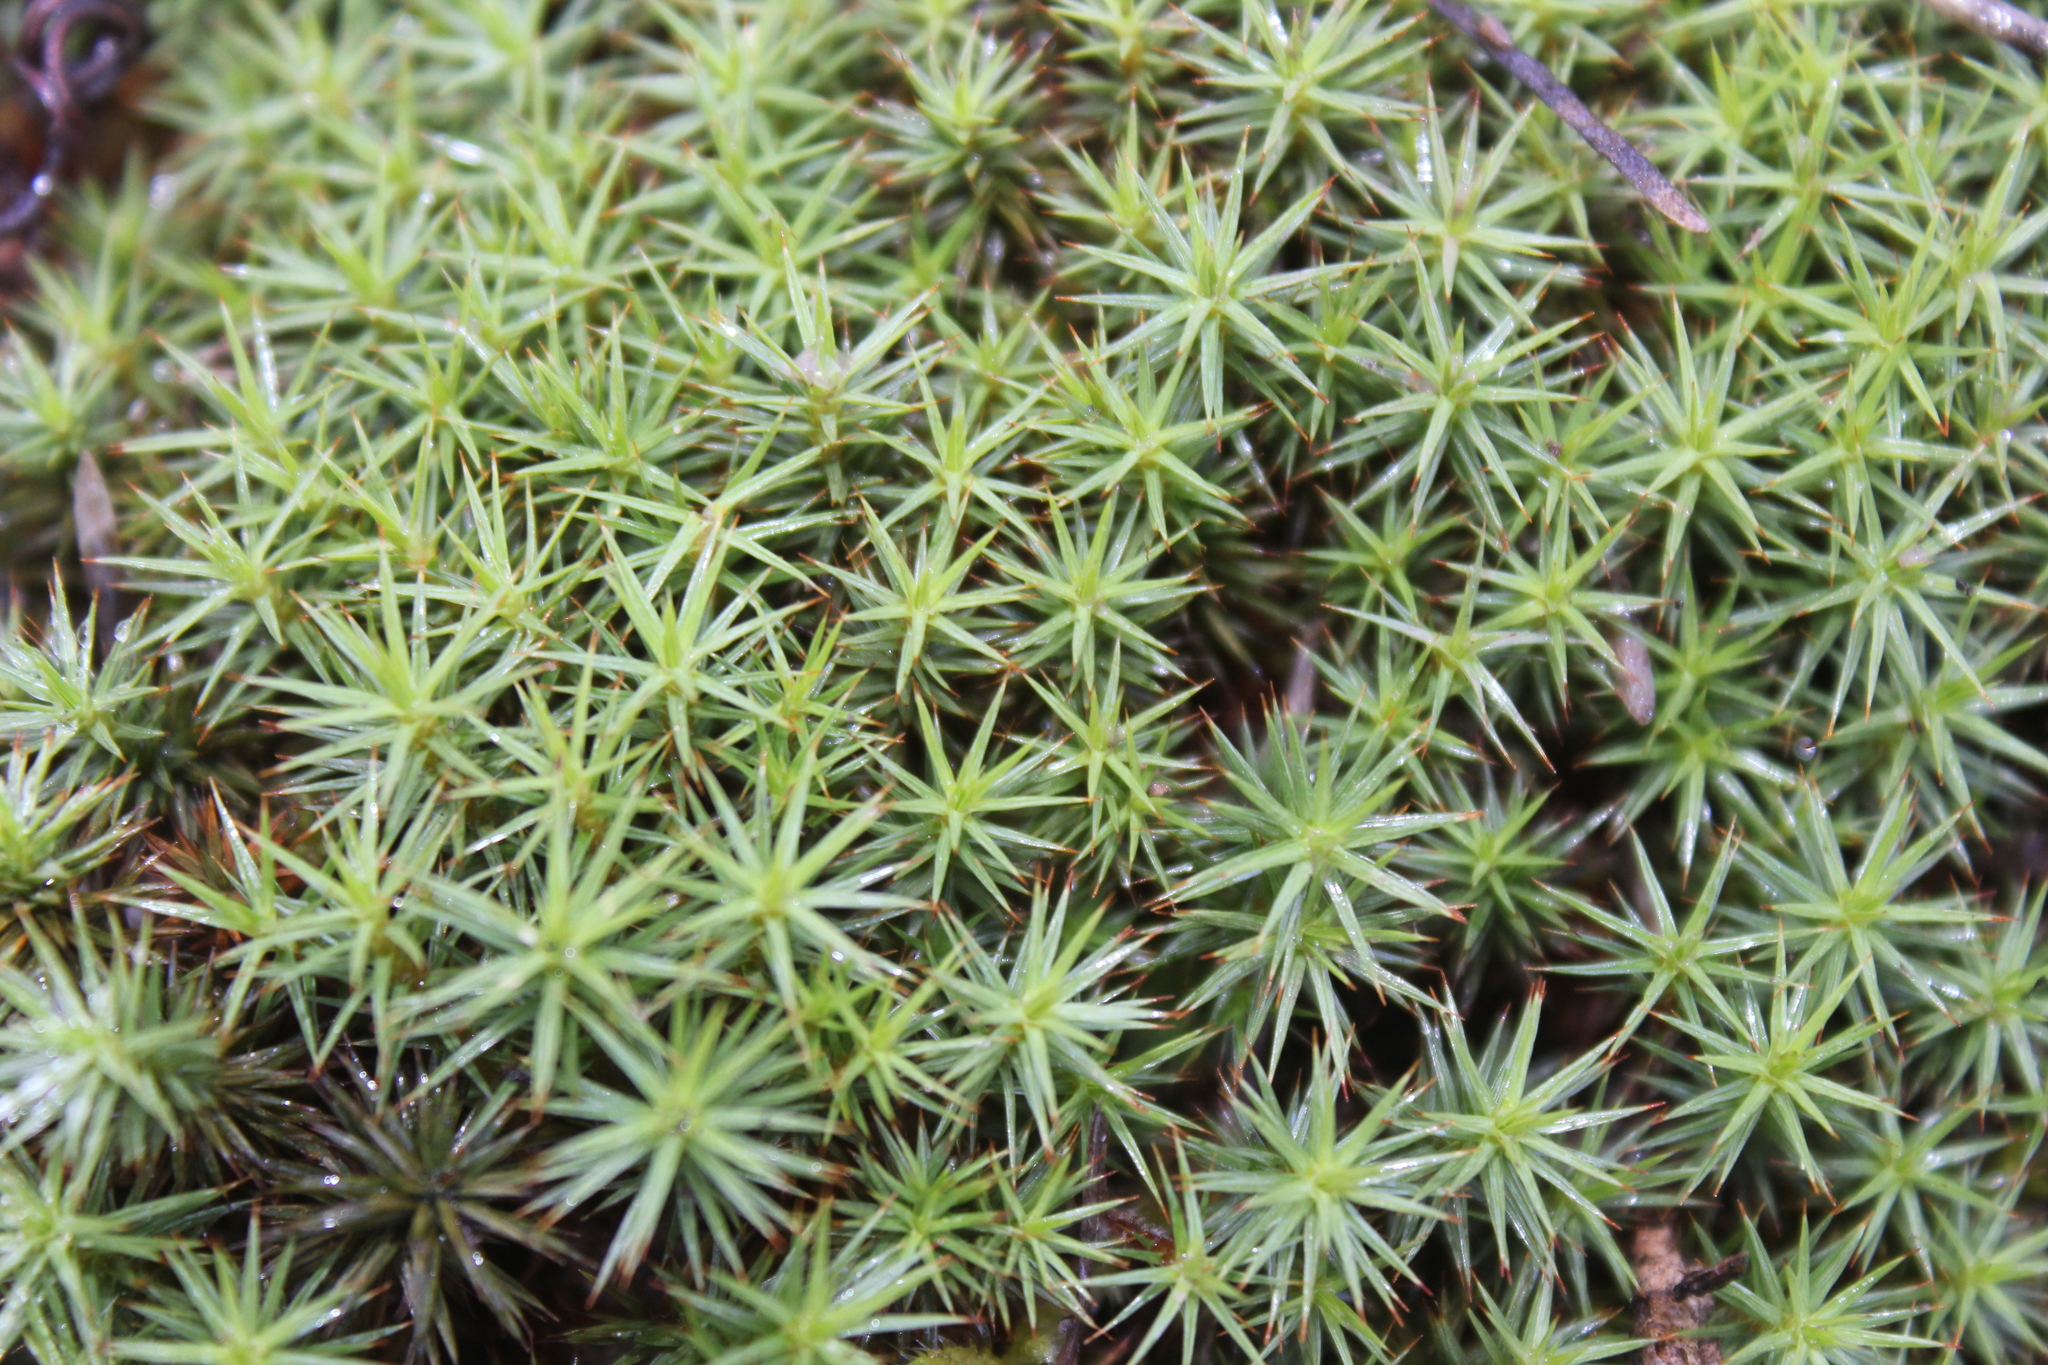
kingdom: Plantae
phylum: Bryophyta
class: Polytrichopsida
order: Polytrichales
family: Polytrichaceae
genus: Polytrichum
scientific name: Polytrichum juniperinum
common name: Juniper haircap moss
